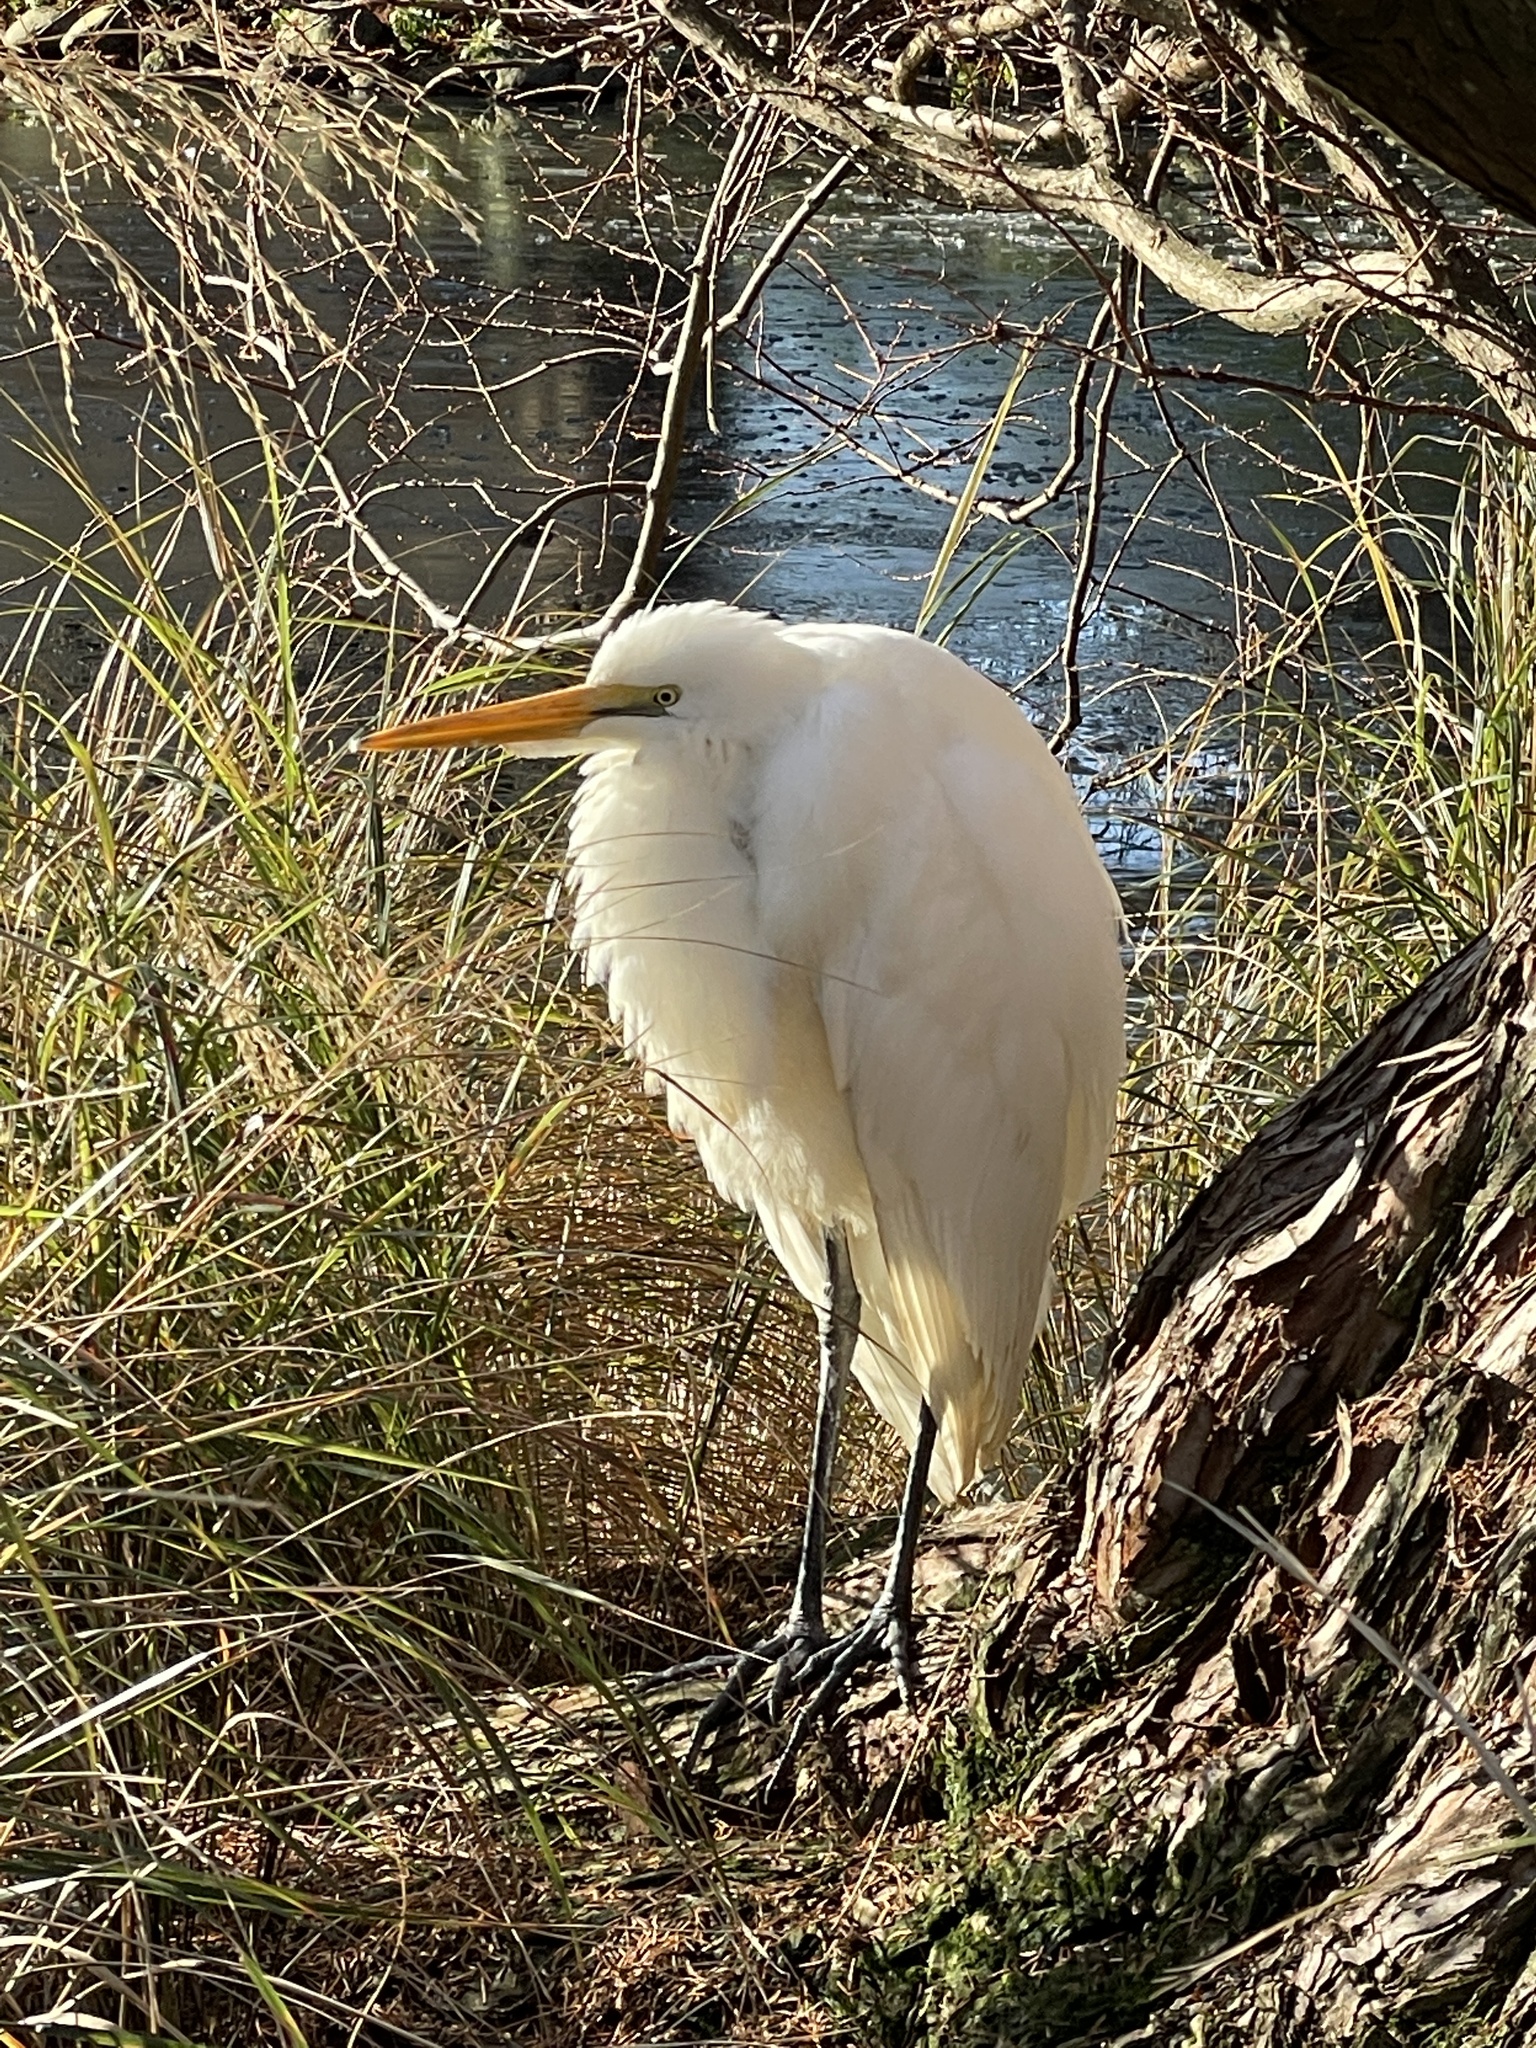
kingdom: Animalia
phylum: Chordata
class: Aves
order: Pelecaniformes
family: Ardeidae
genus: Ardea
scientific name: Ardea modesta
